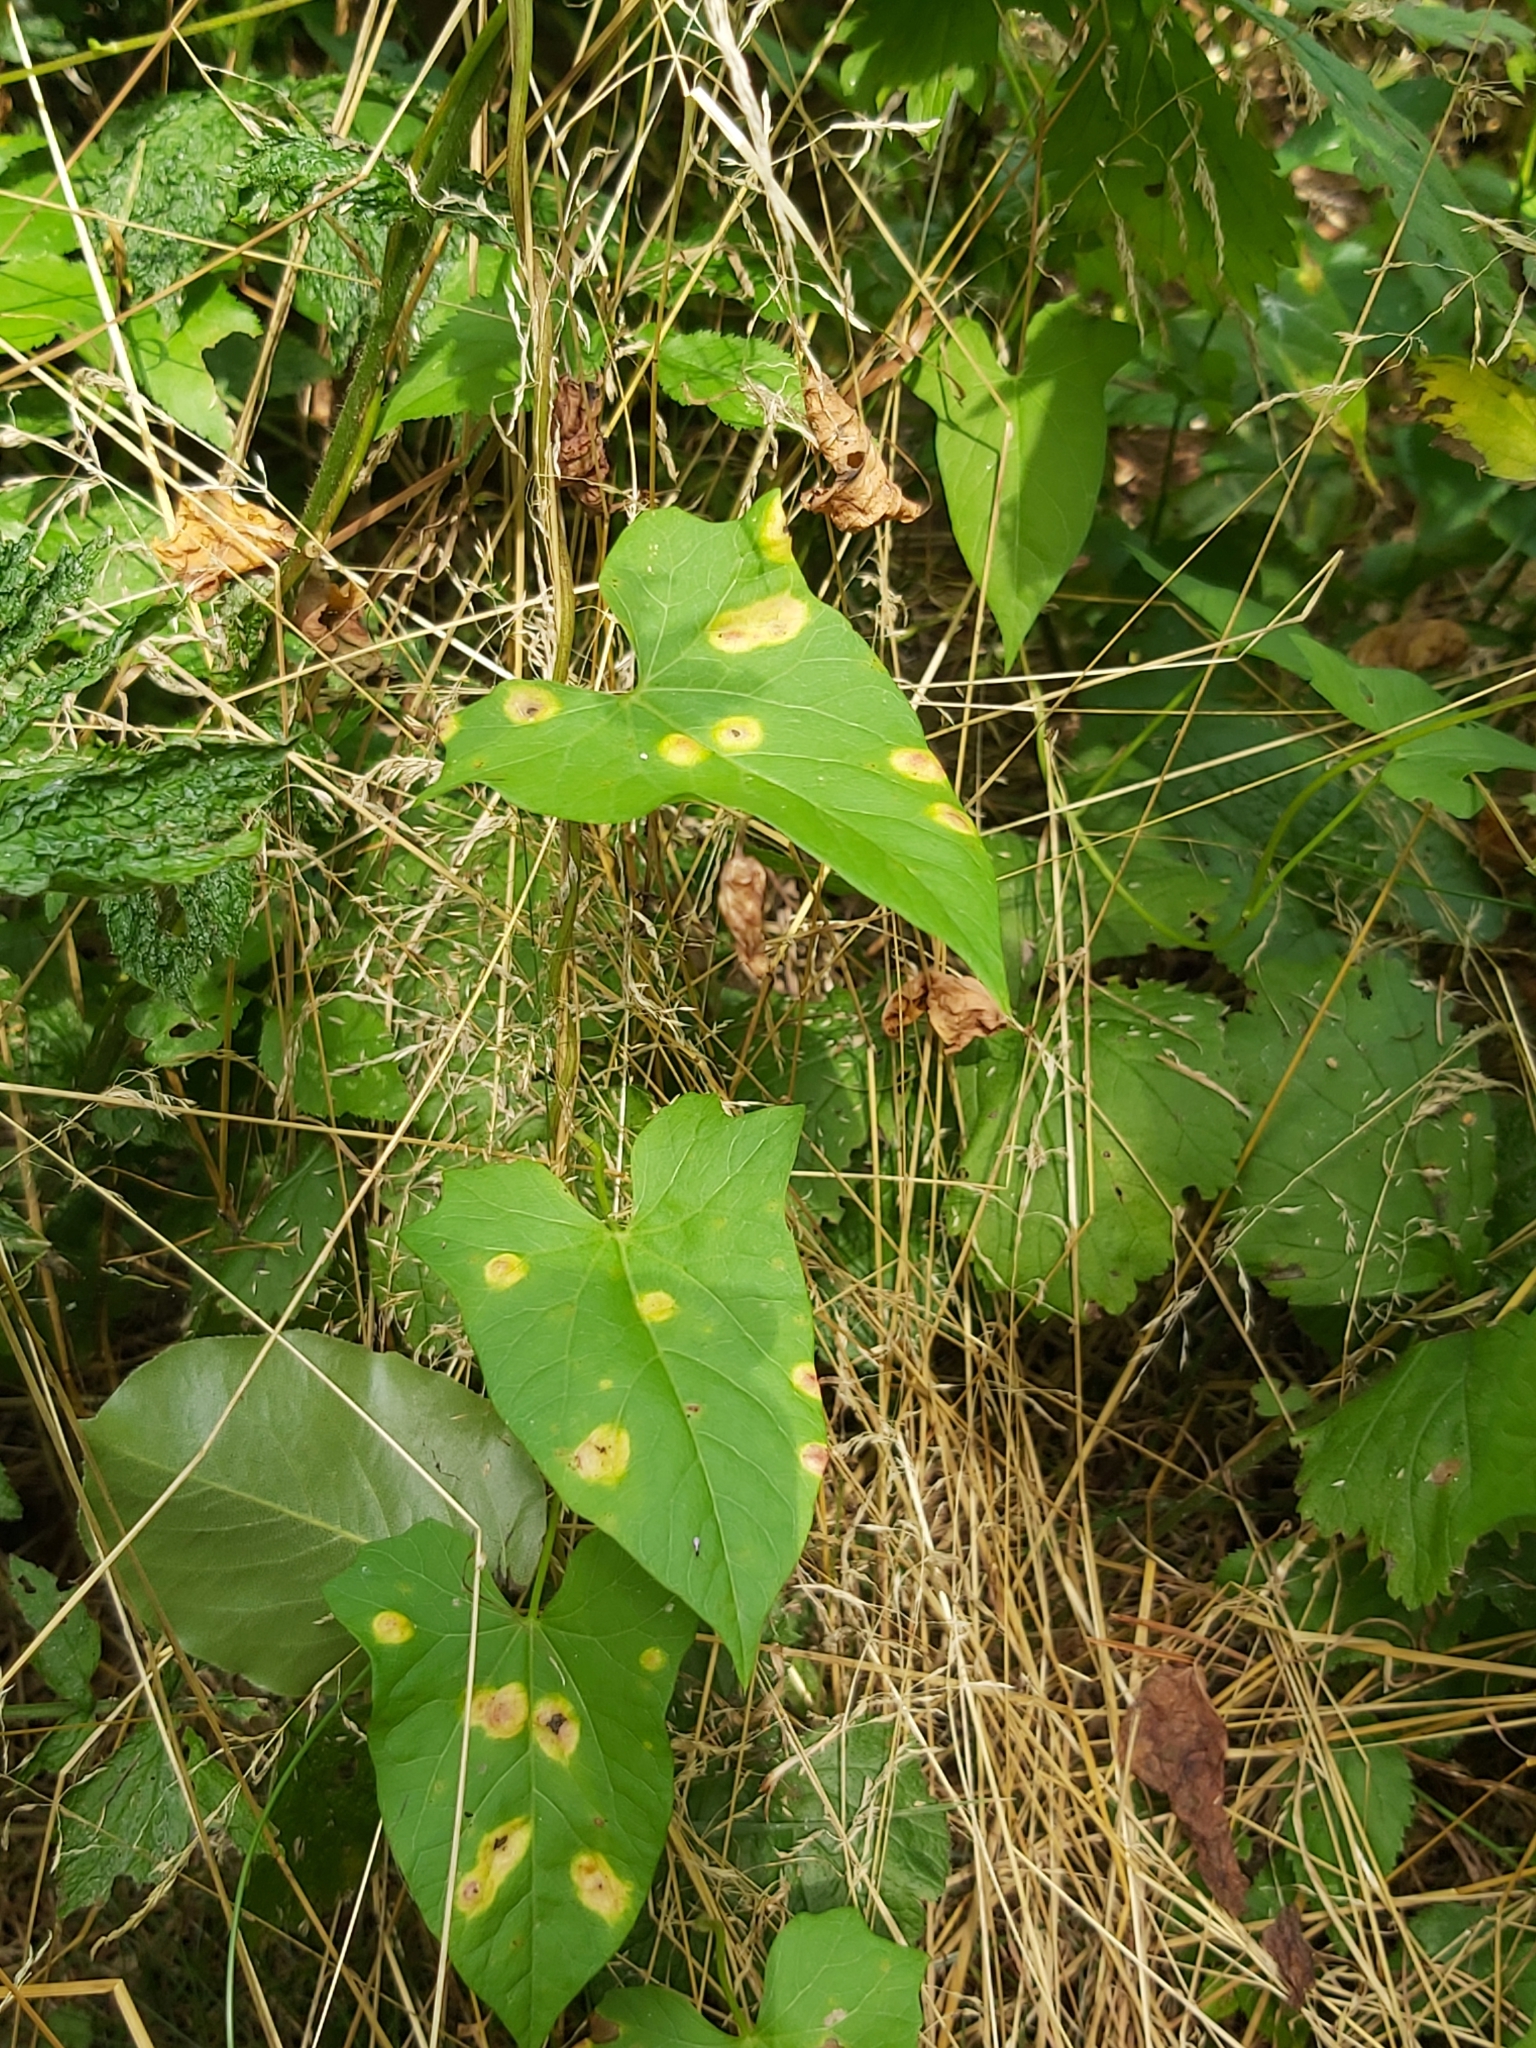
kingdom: Fungi
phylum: Basidiomycota
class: Pucciniomycetes
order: Pucciniales
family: Pucciniaceae
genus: Puccinia
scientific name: Puccinia convolvuli
